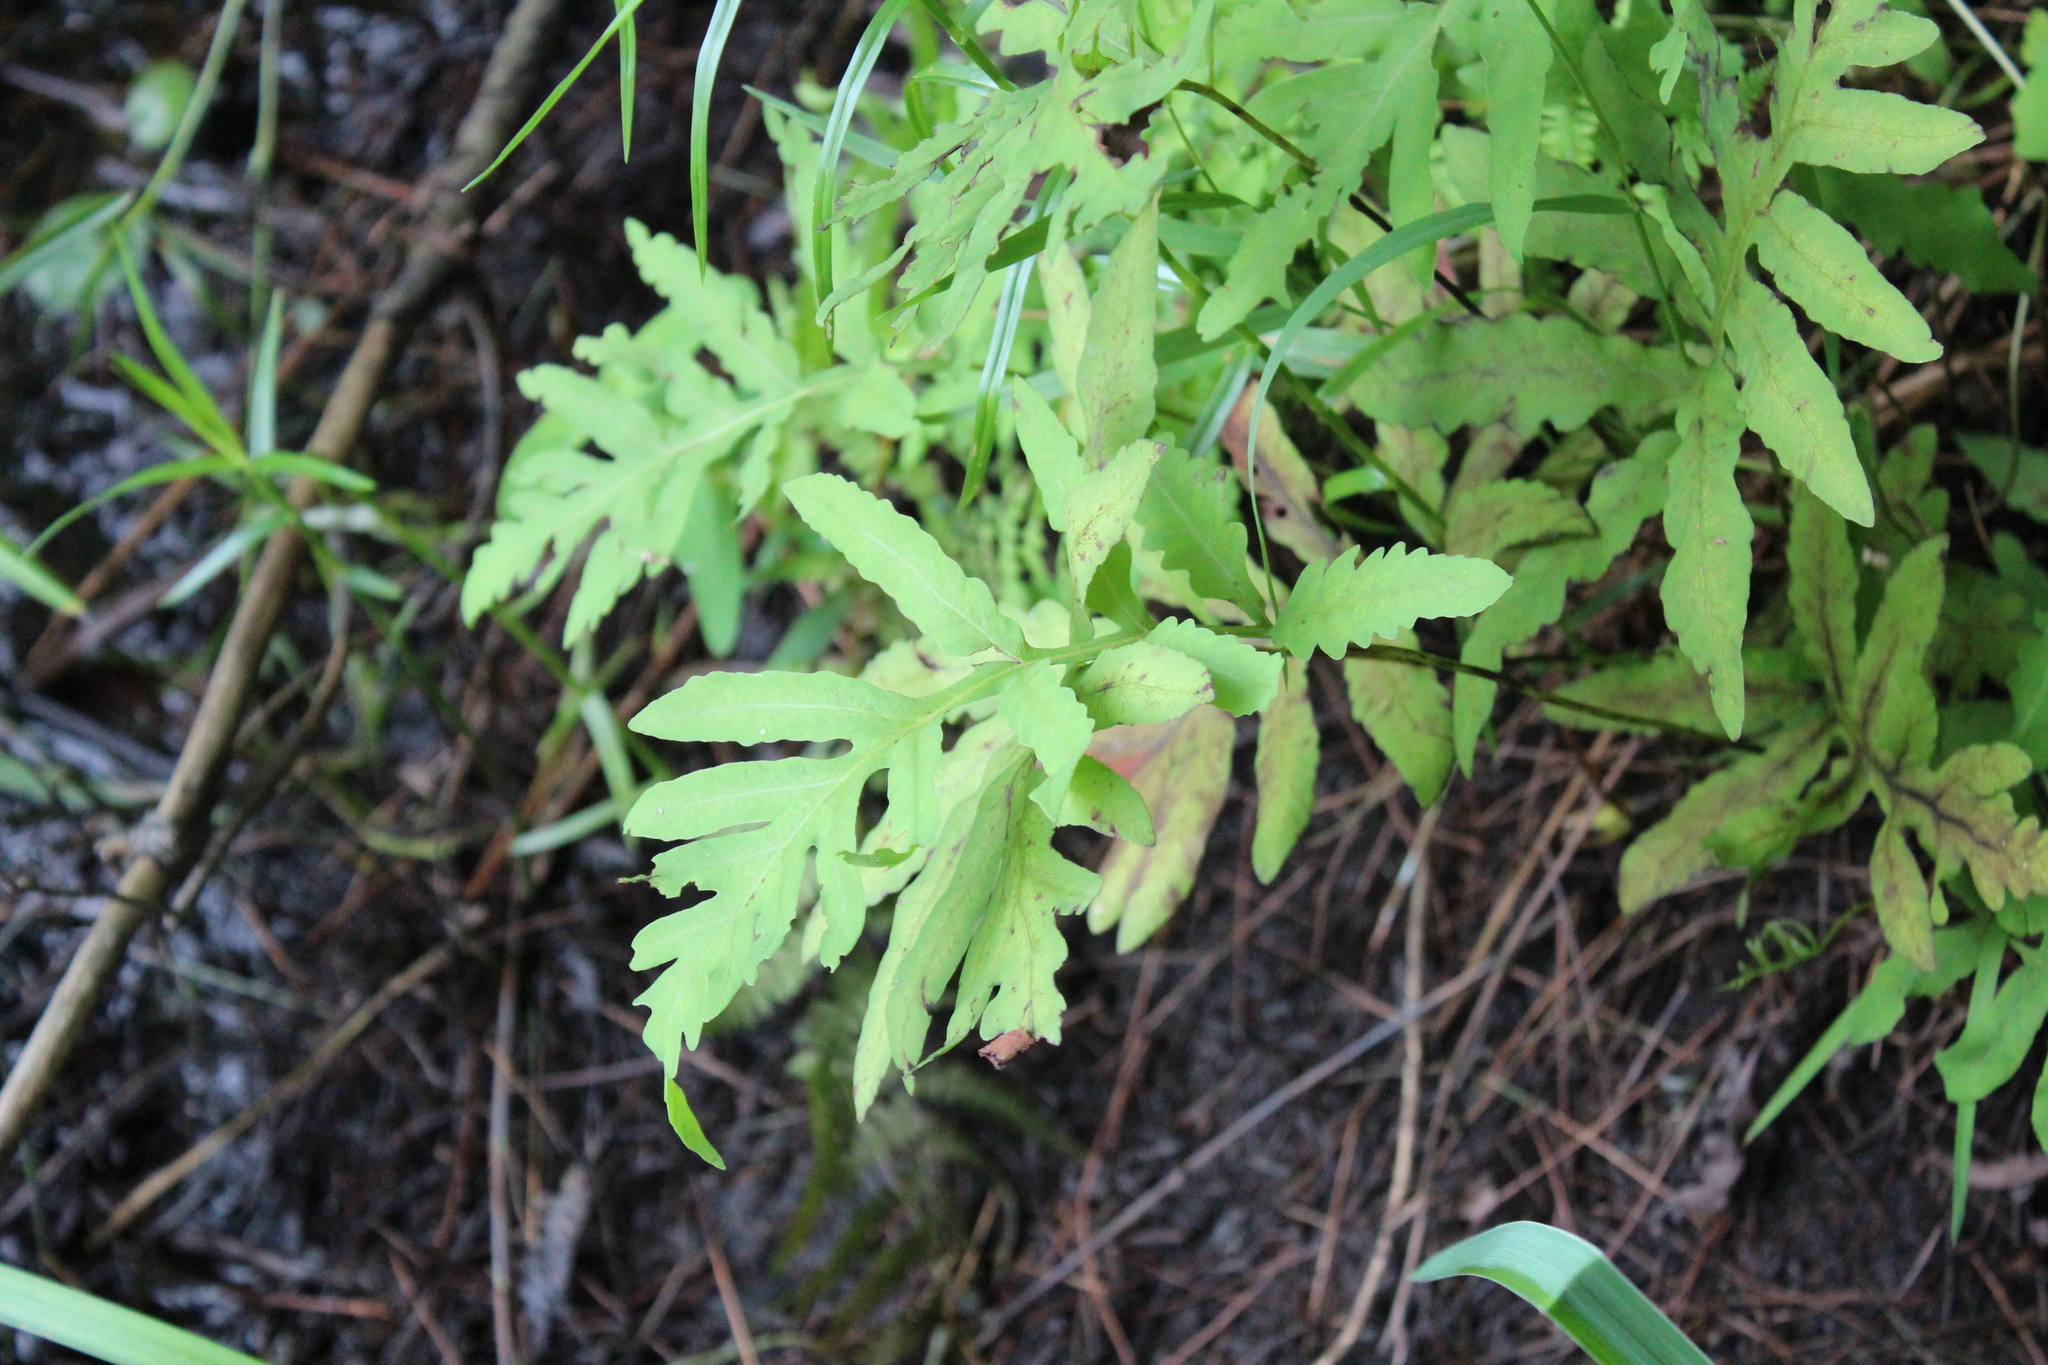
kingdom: Plantae
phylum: Tracheophyta
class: Polypodiopsida
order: Polypodiales
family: Onocleaceae
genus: Onoclea
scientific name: Onoclea sensibilis
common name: Sensitive fern
